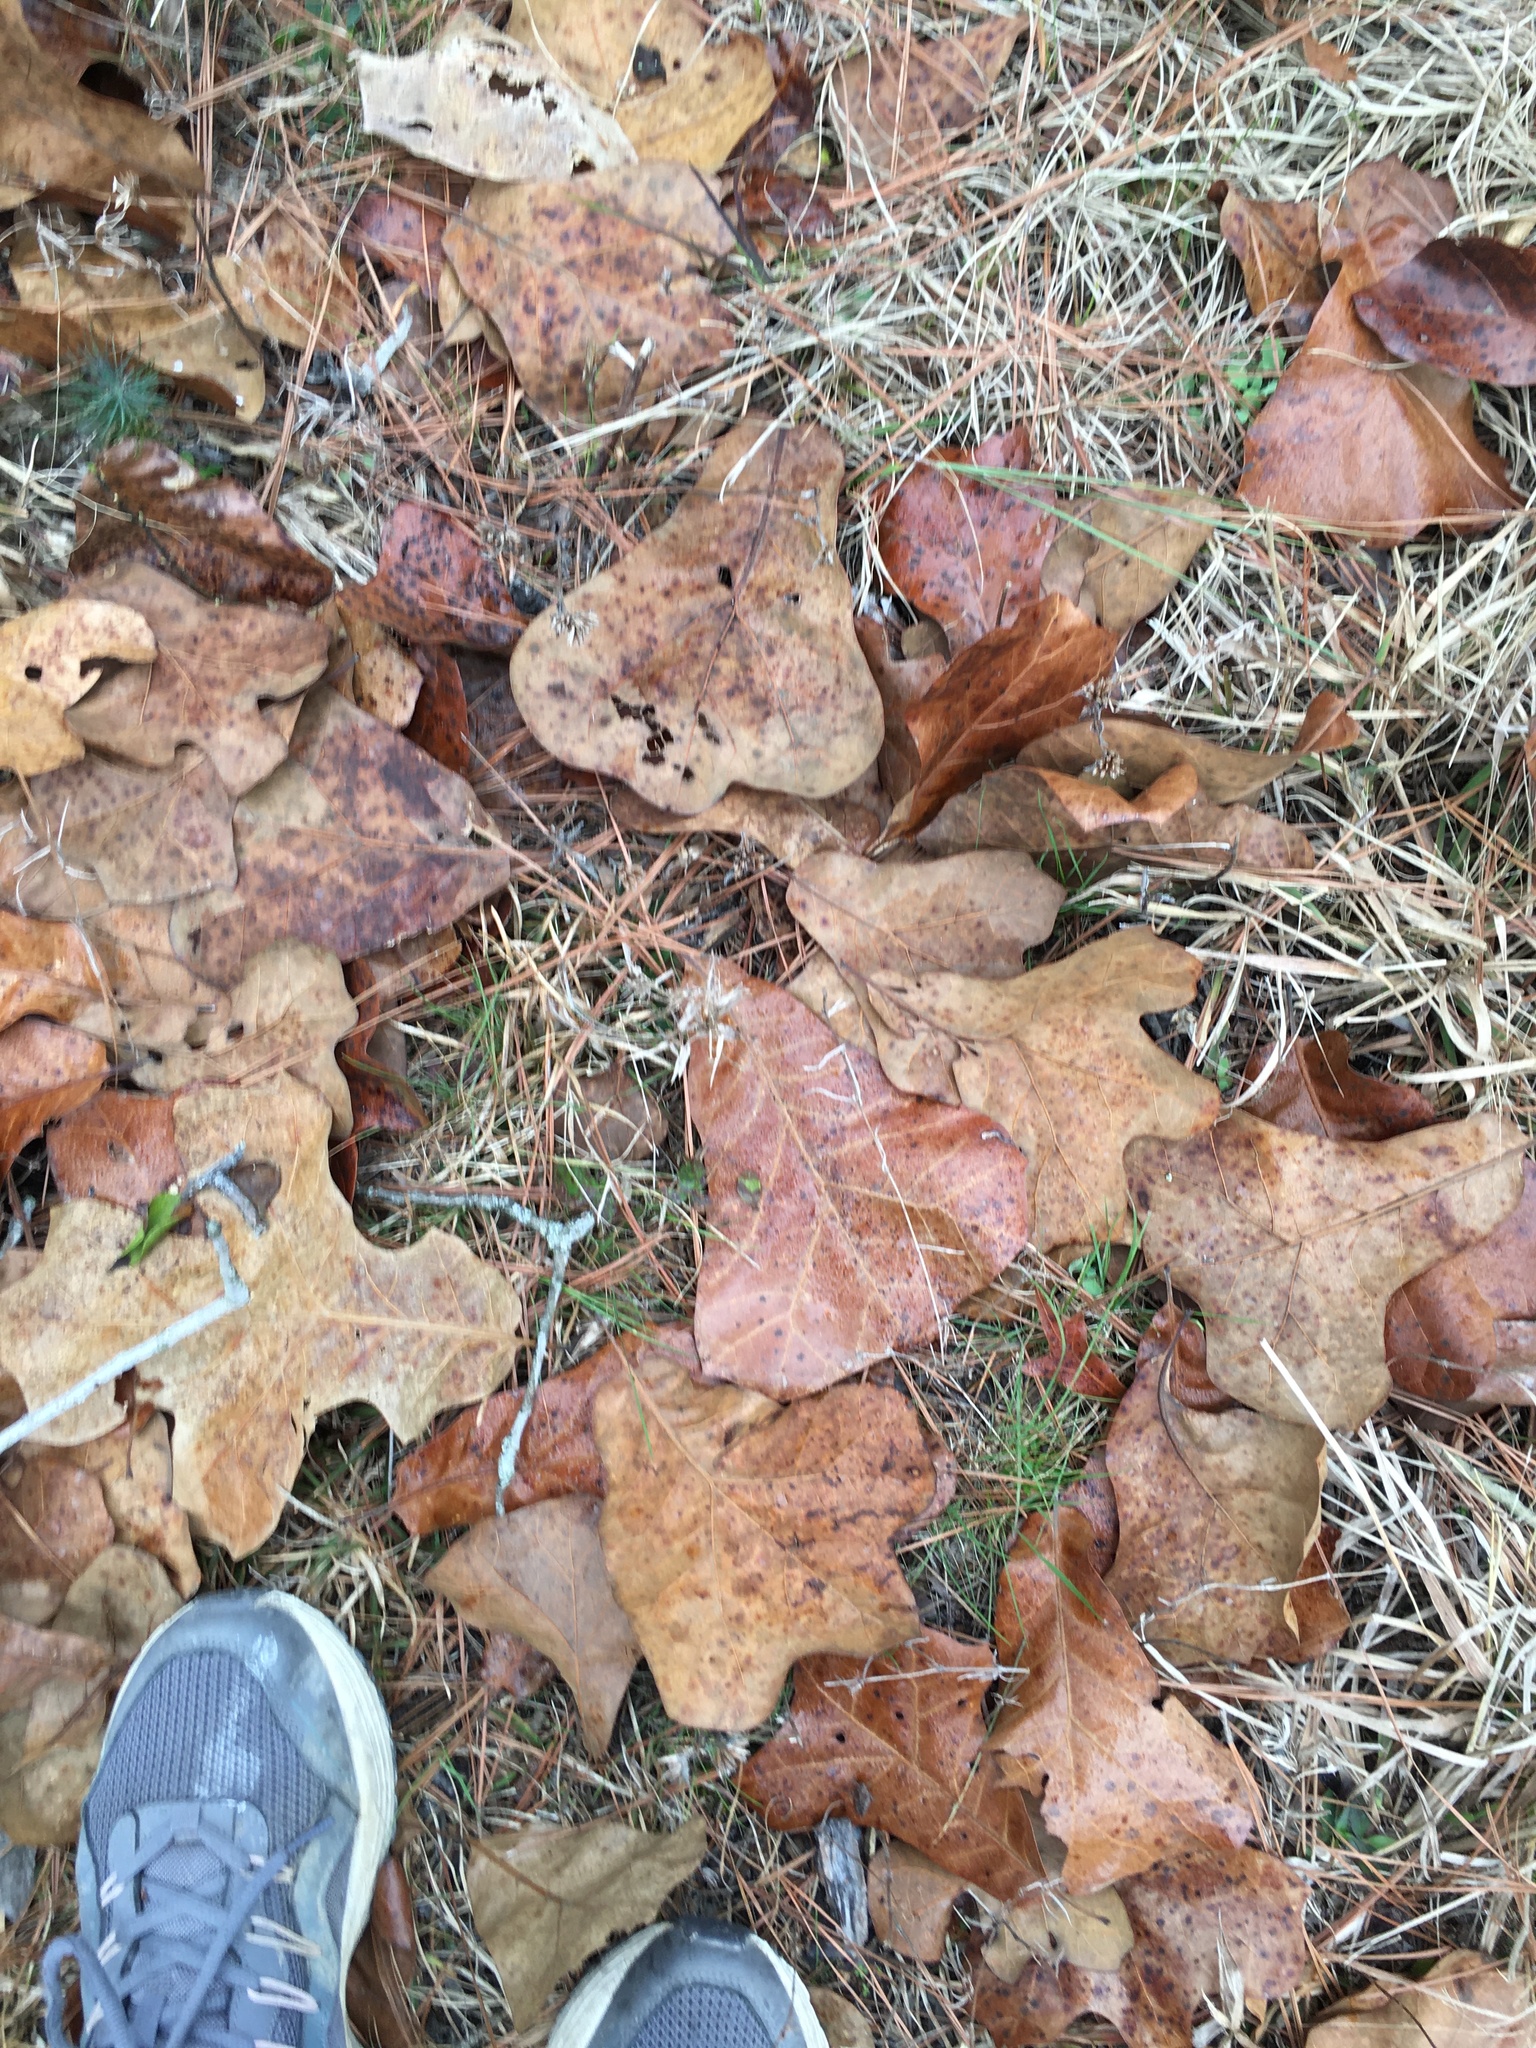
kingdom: Plantae
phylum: Tracheophyta
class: Magnoliopsida
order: Fagales
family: Fagaceae
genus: Quercus
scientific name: Quercus marilandica
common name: Blackjack oak
